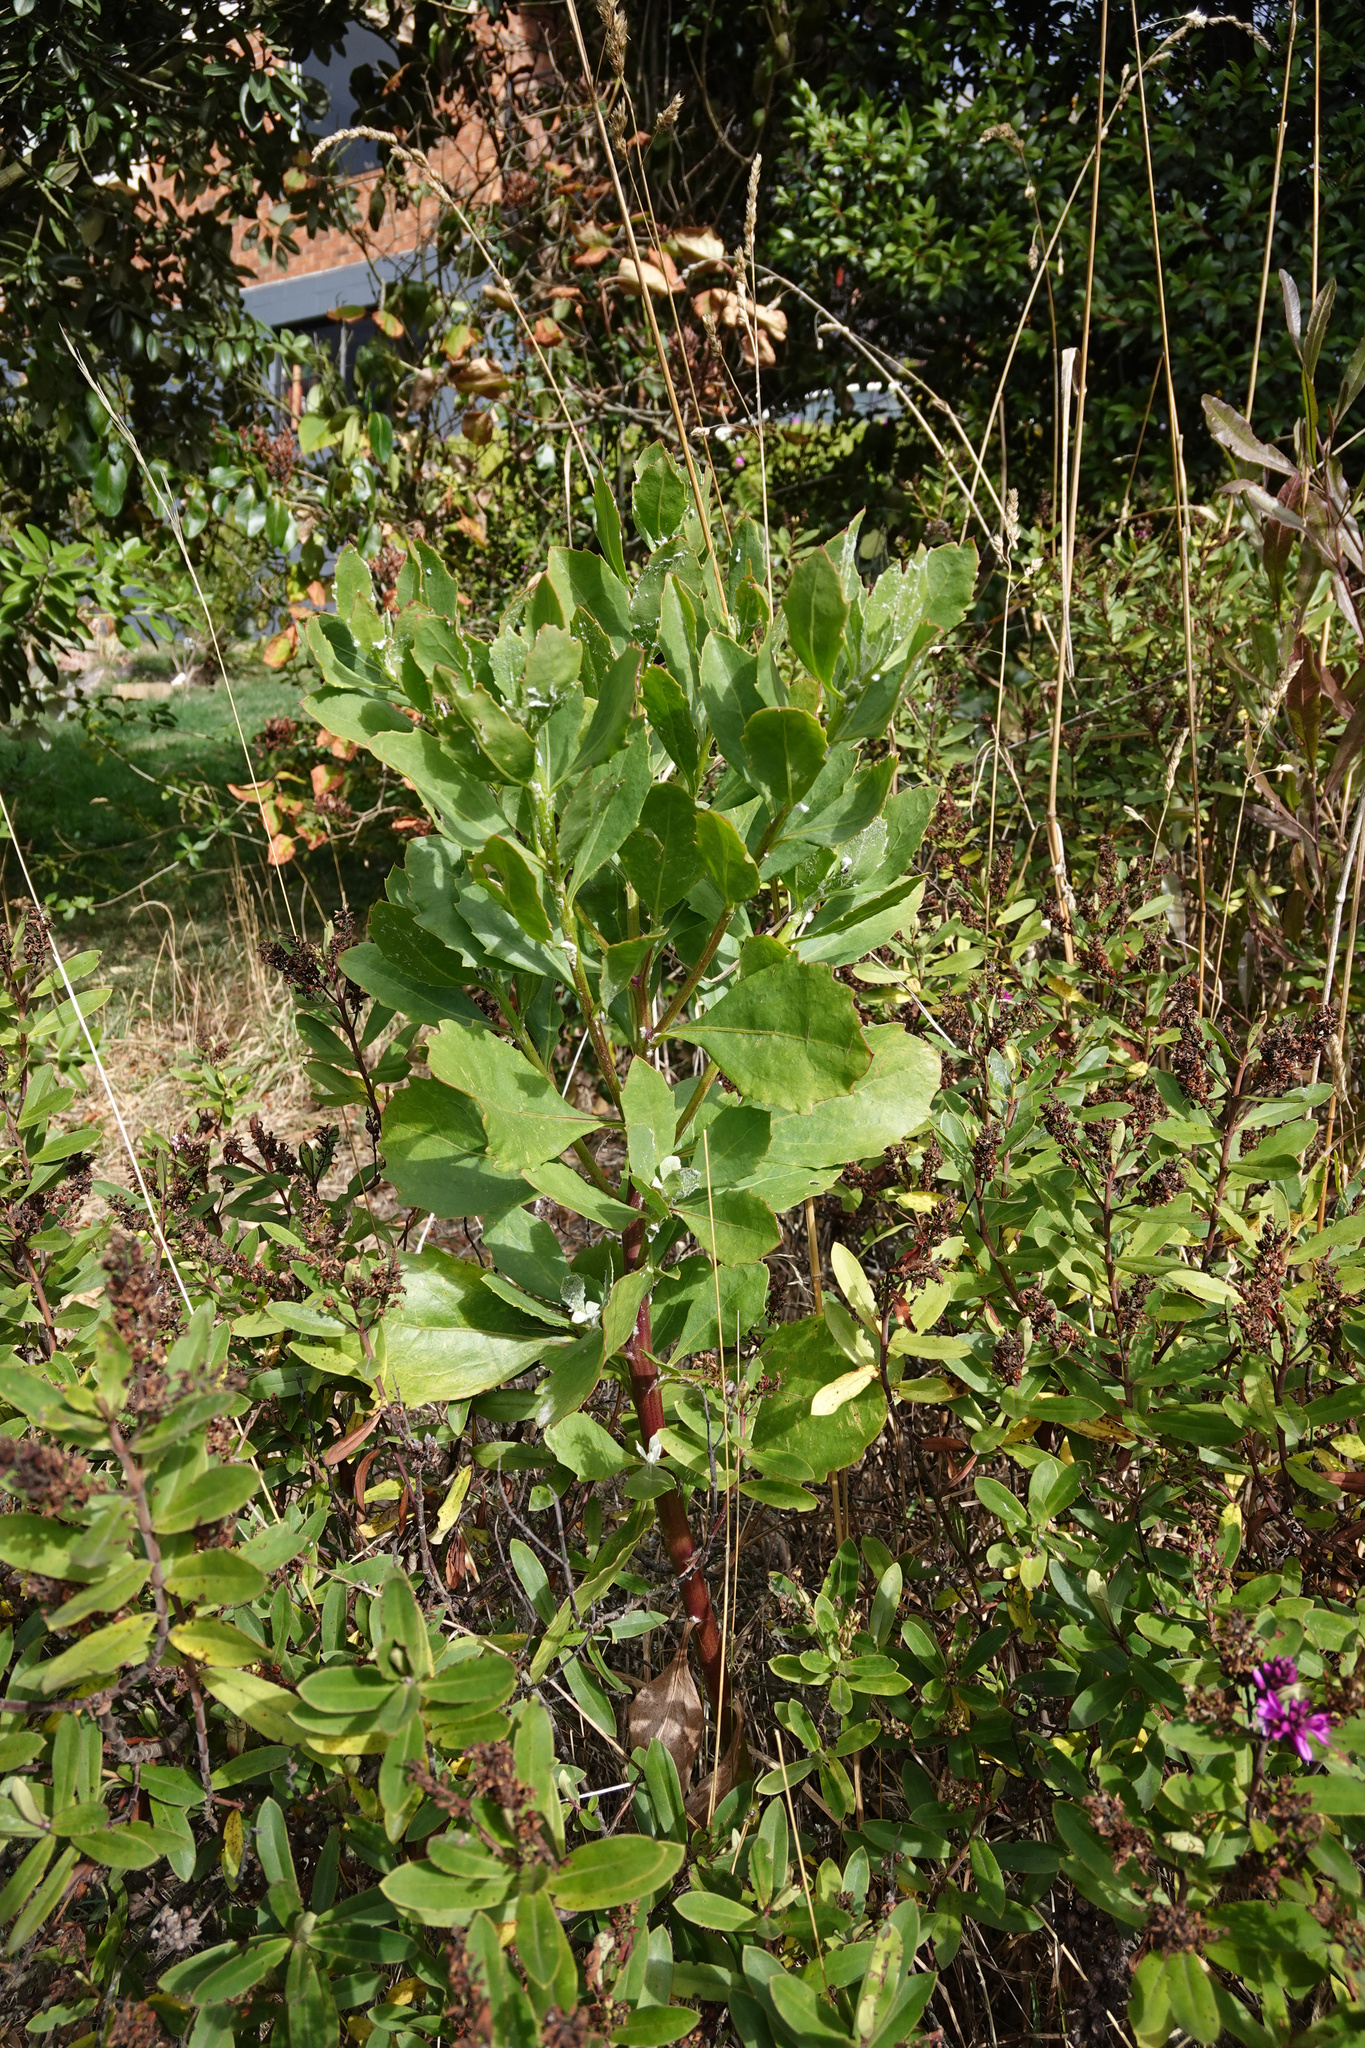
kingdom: Plantae
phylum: Tracheophyta
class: Magnoliopsida
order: Asterales
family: Asteraceae
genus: Osteospermum
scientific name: Osteospermum moniliferum
